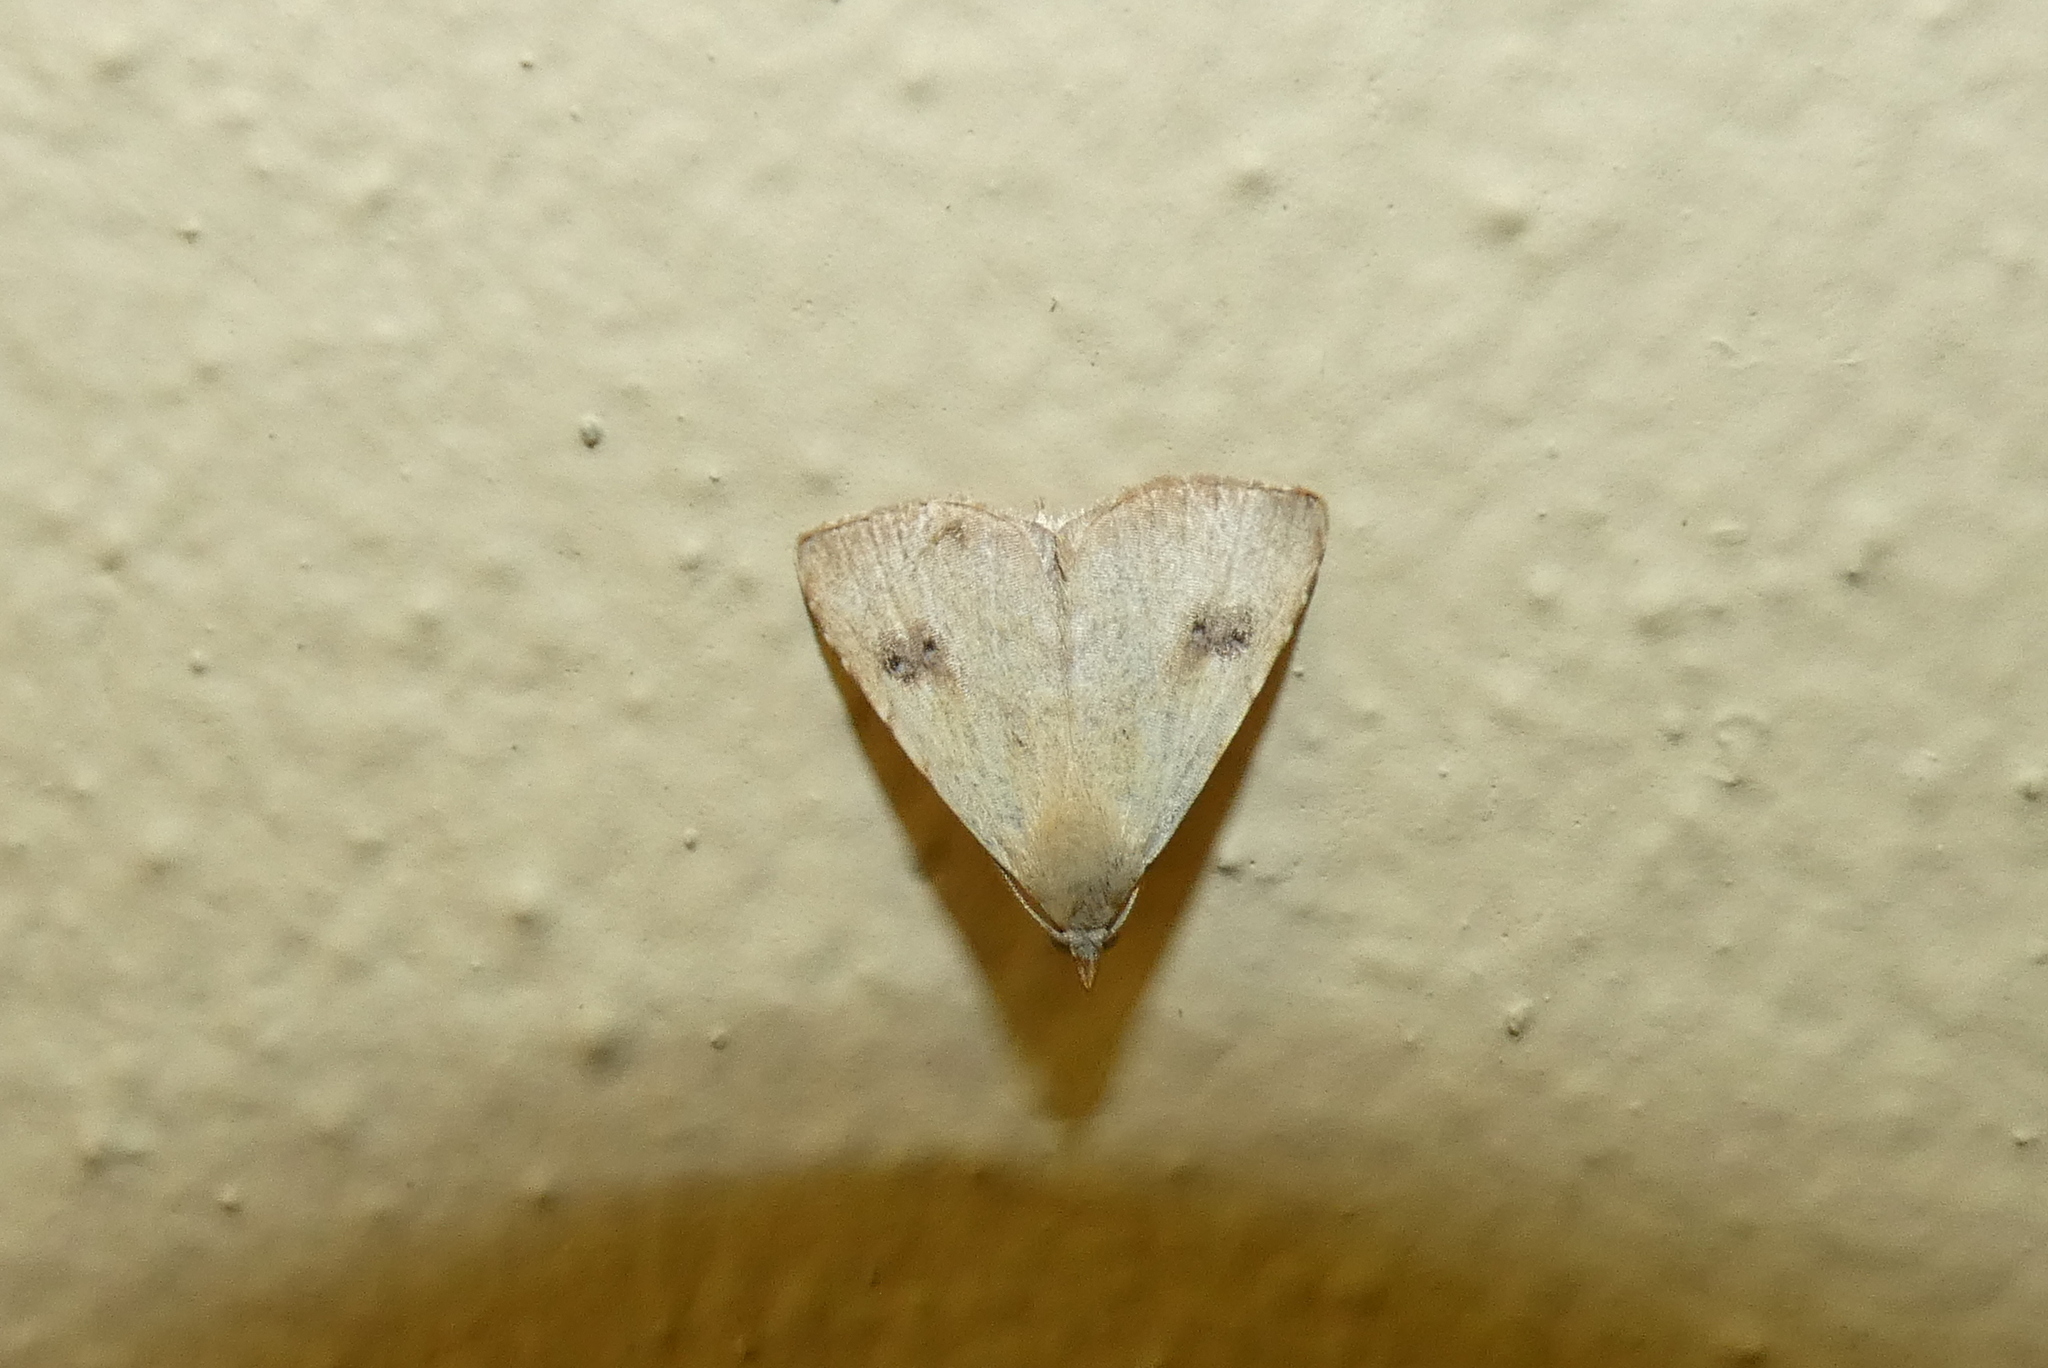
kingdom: Animalia
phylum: Arthropoda
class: Insecta
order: Lepidoptera
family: Erebidae
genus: Rivula
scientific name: Rivula sericealis
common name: Straw dot
